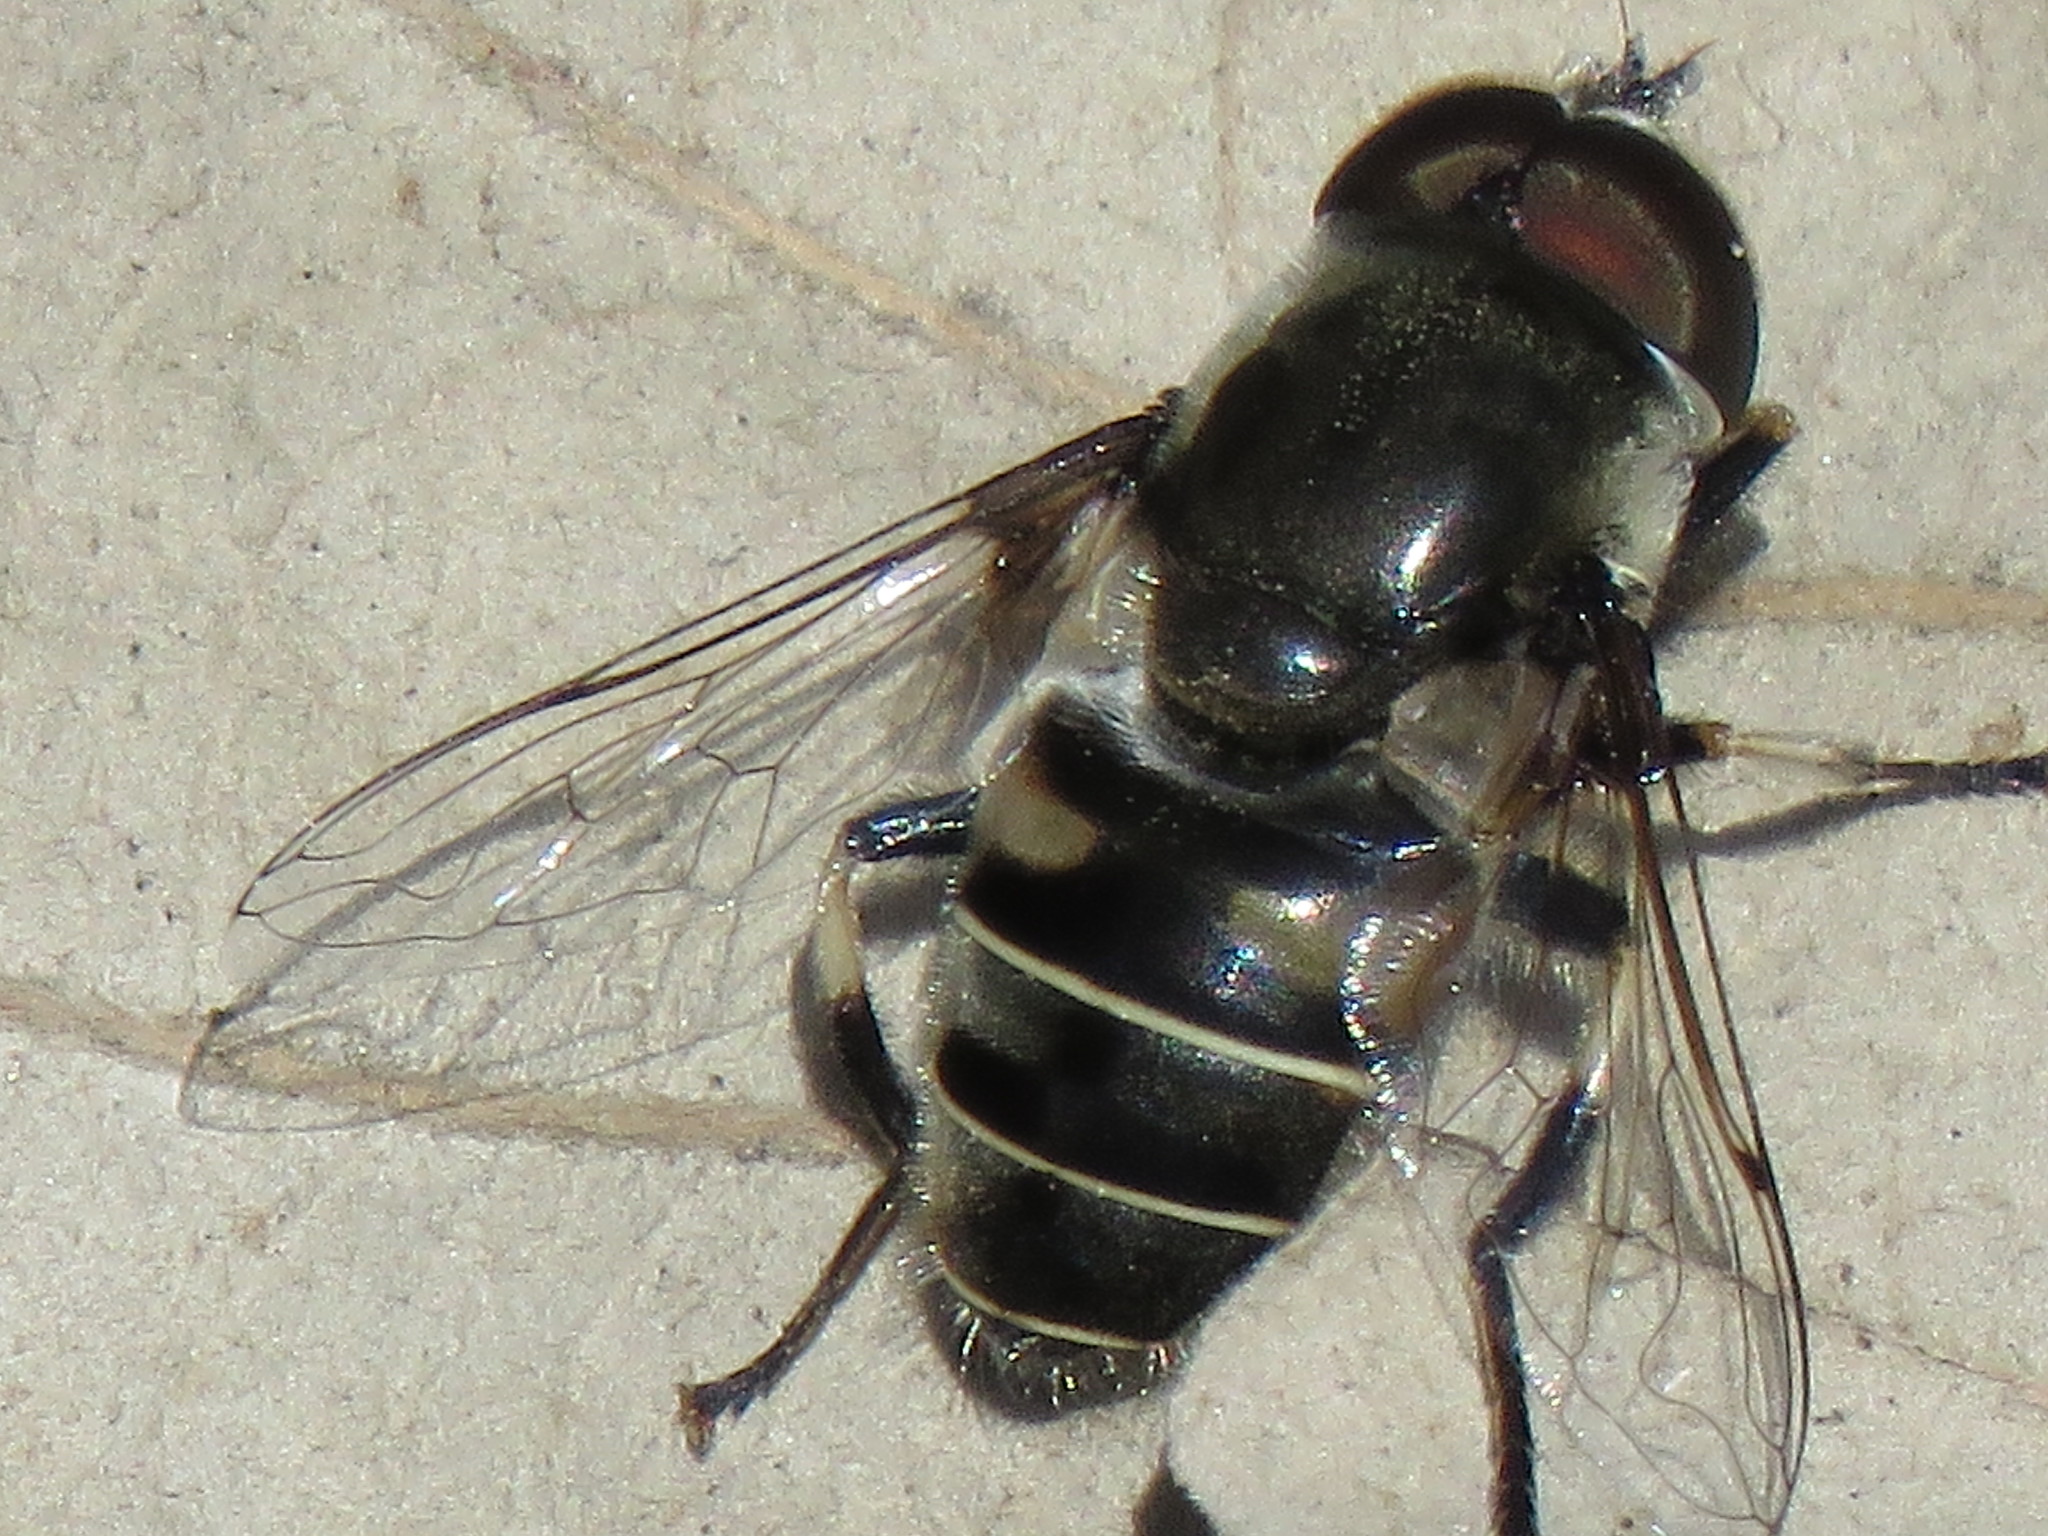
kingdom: Animalia
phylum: Arthropoda
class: Insecta
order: Diptera
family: Syrphidae
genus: Eristalis
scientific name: Eristalis dimidiata
